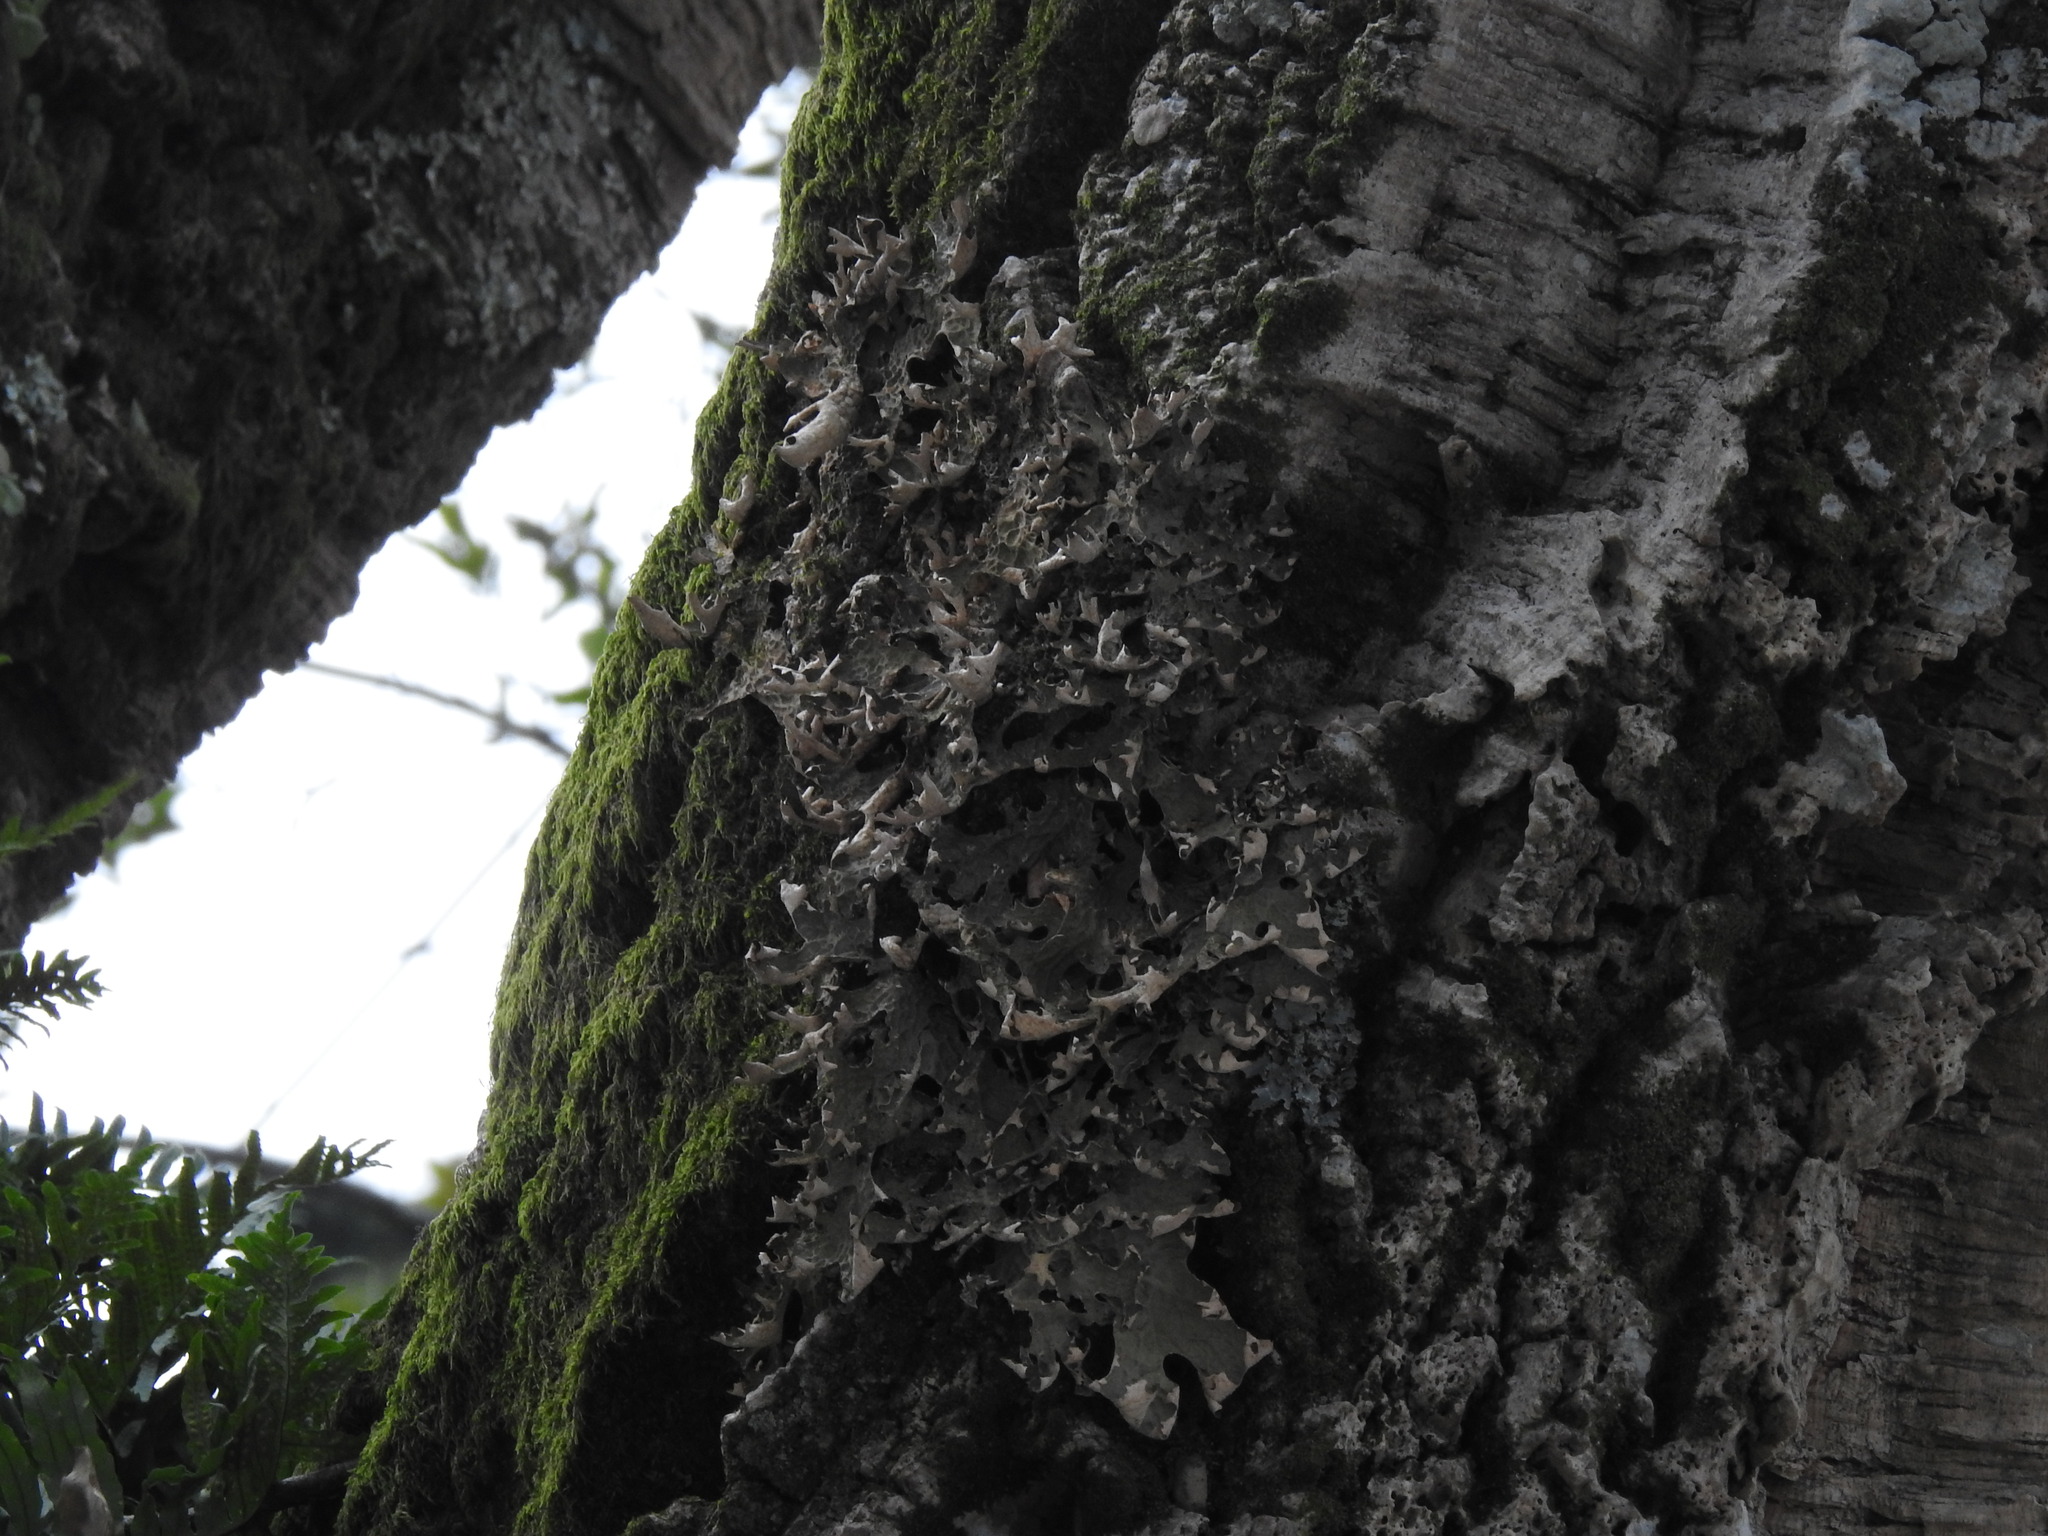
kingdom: Fungi
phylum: Ascomycota
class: Lecanoromycetes
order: Peltigerales
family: Lobariaceae
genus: Lobaria
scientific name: Lobaria pulmonaria
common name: Lungwort
